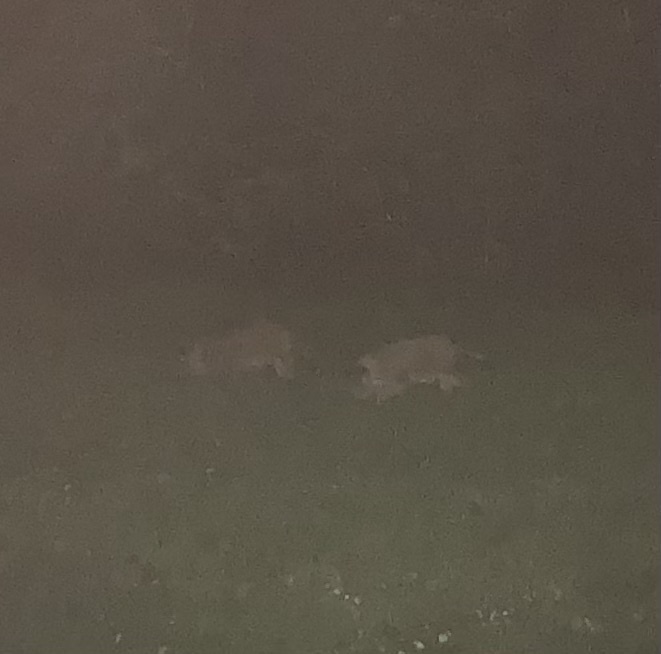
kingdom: Animalia
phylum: Chordata
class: Mammalia
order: Artiodactyla
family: Suidae
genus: Sus
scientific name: Sus scrofa
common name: Wild boar
